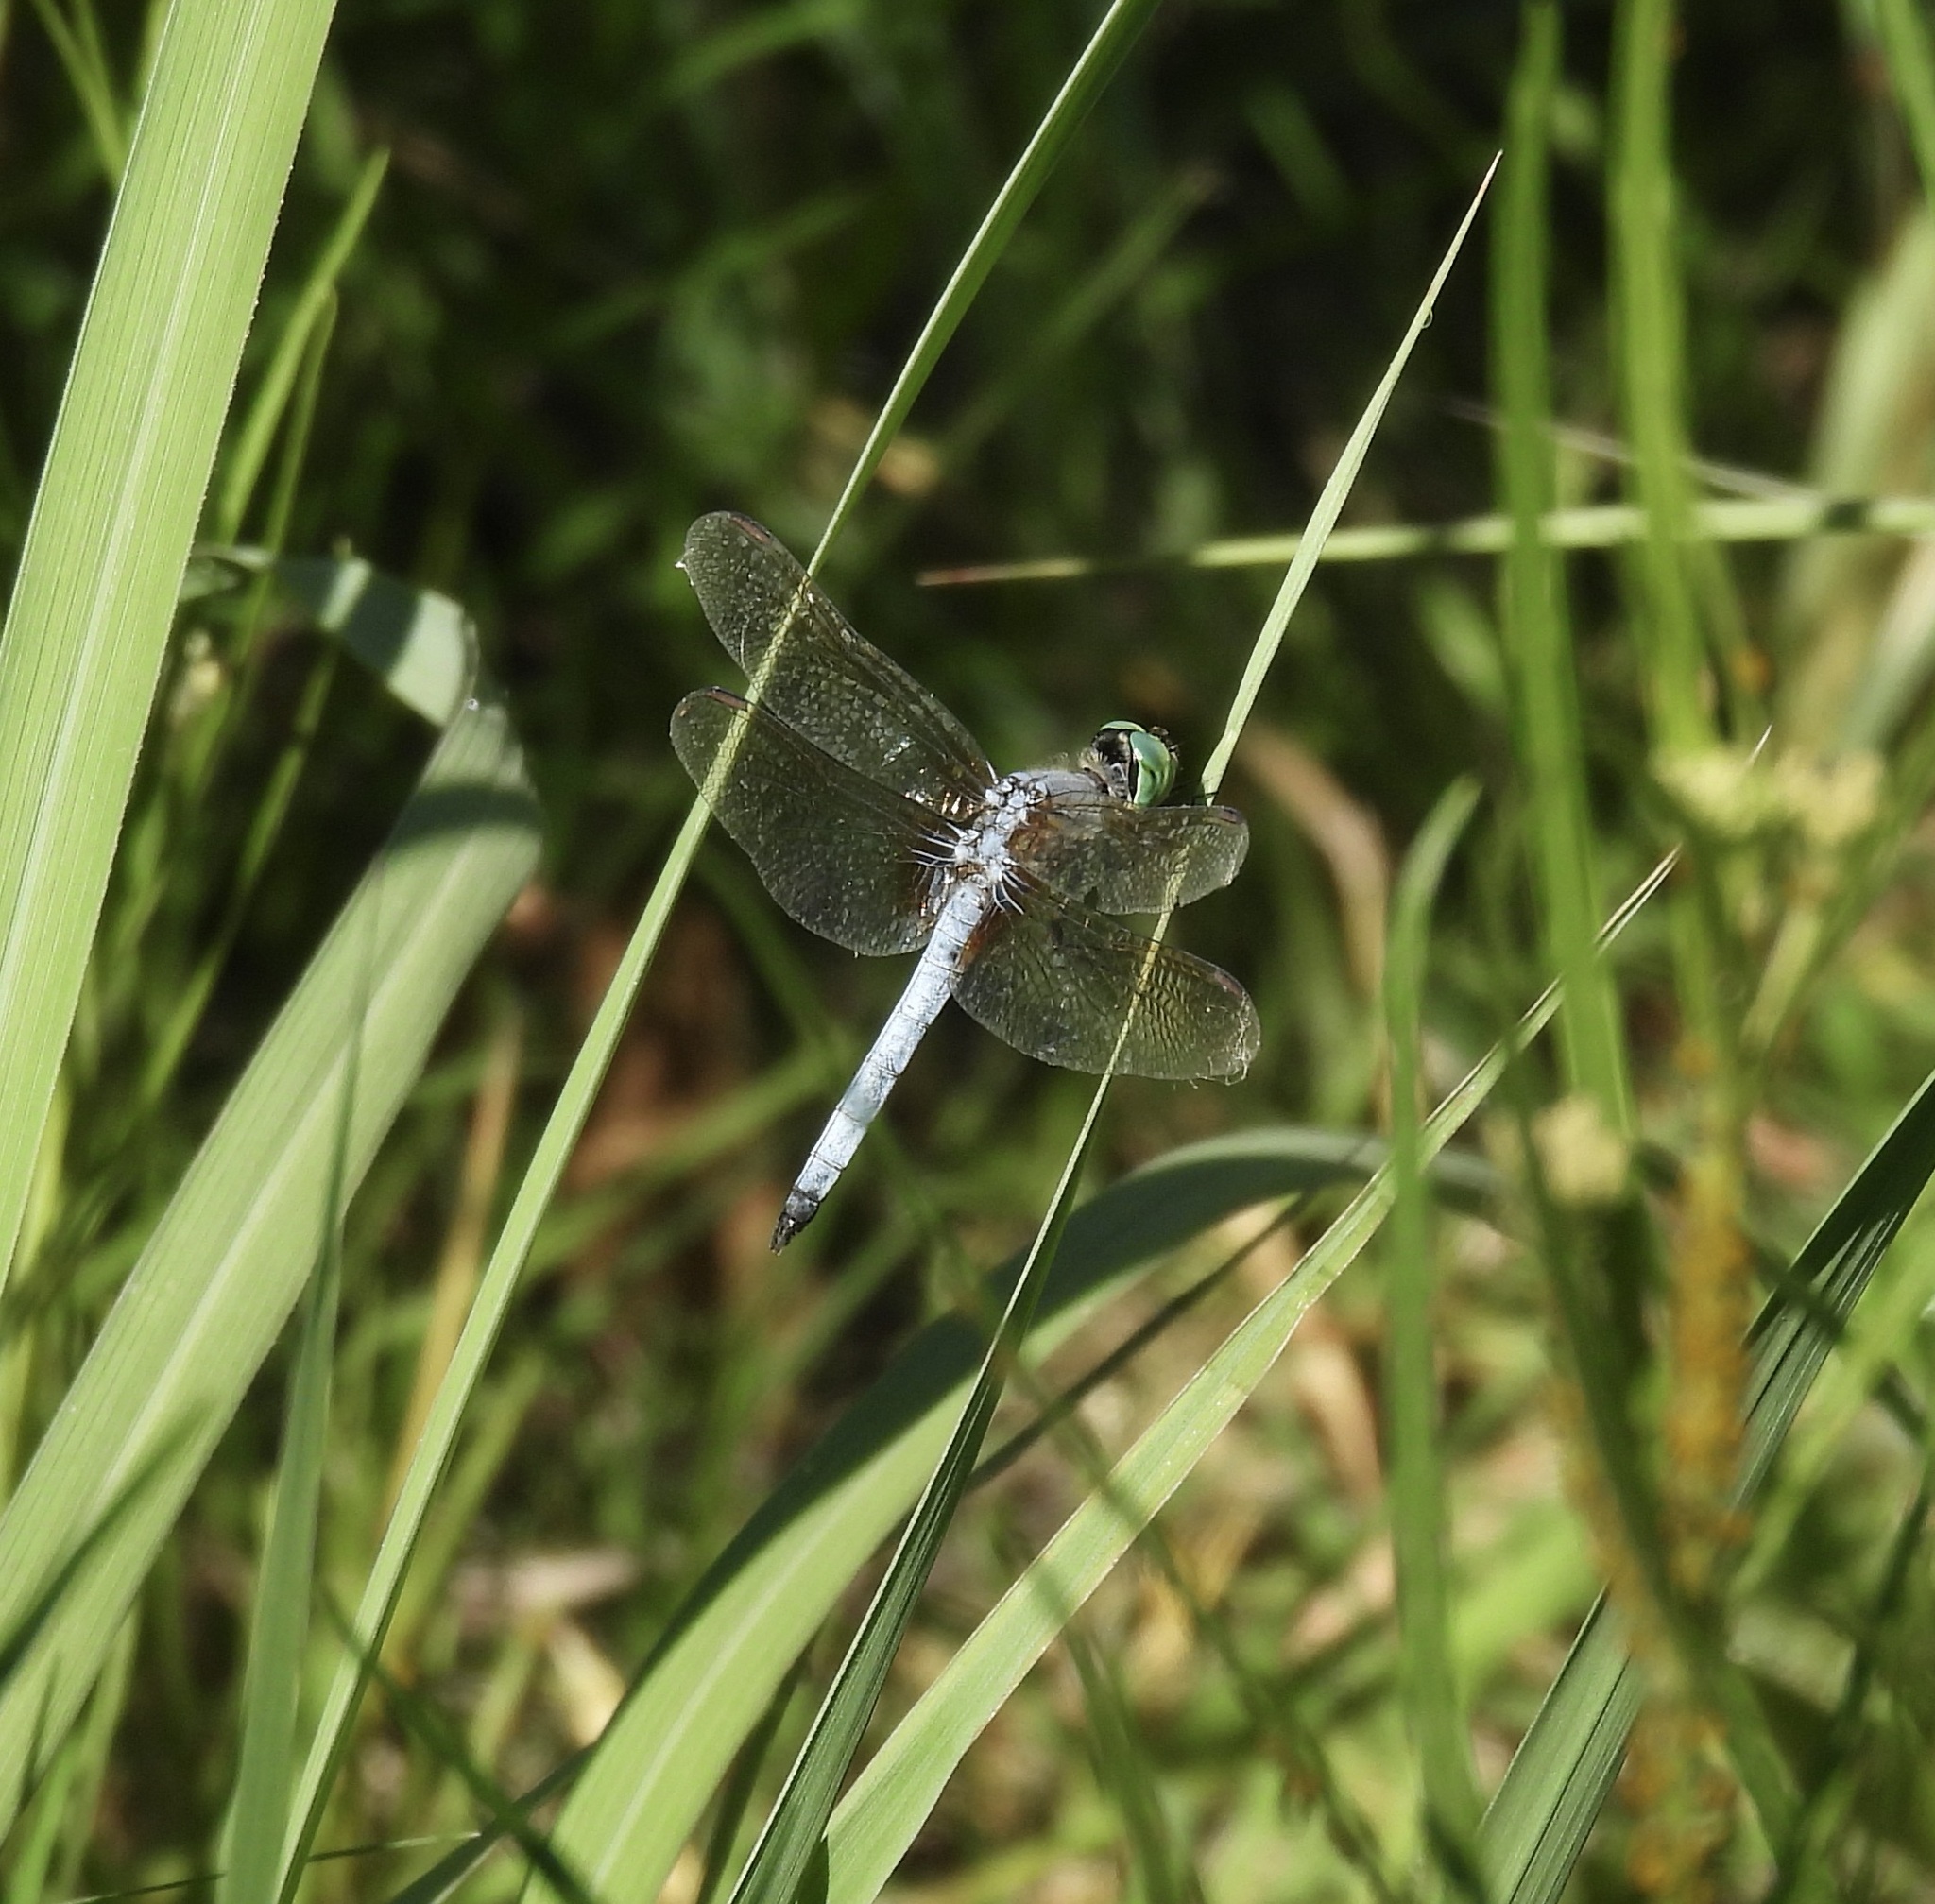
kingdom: Animalia
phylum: Arthropoda
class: Insecta
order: Odonata
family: Libellulidae
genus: Pachydiplax
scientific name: Pachydiplax longipennis
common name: Blue dasher
